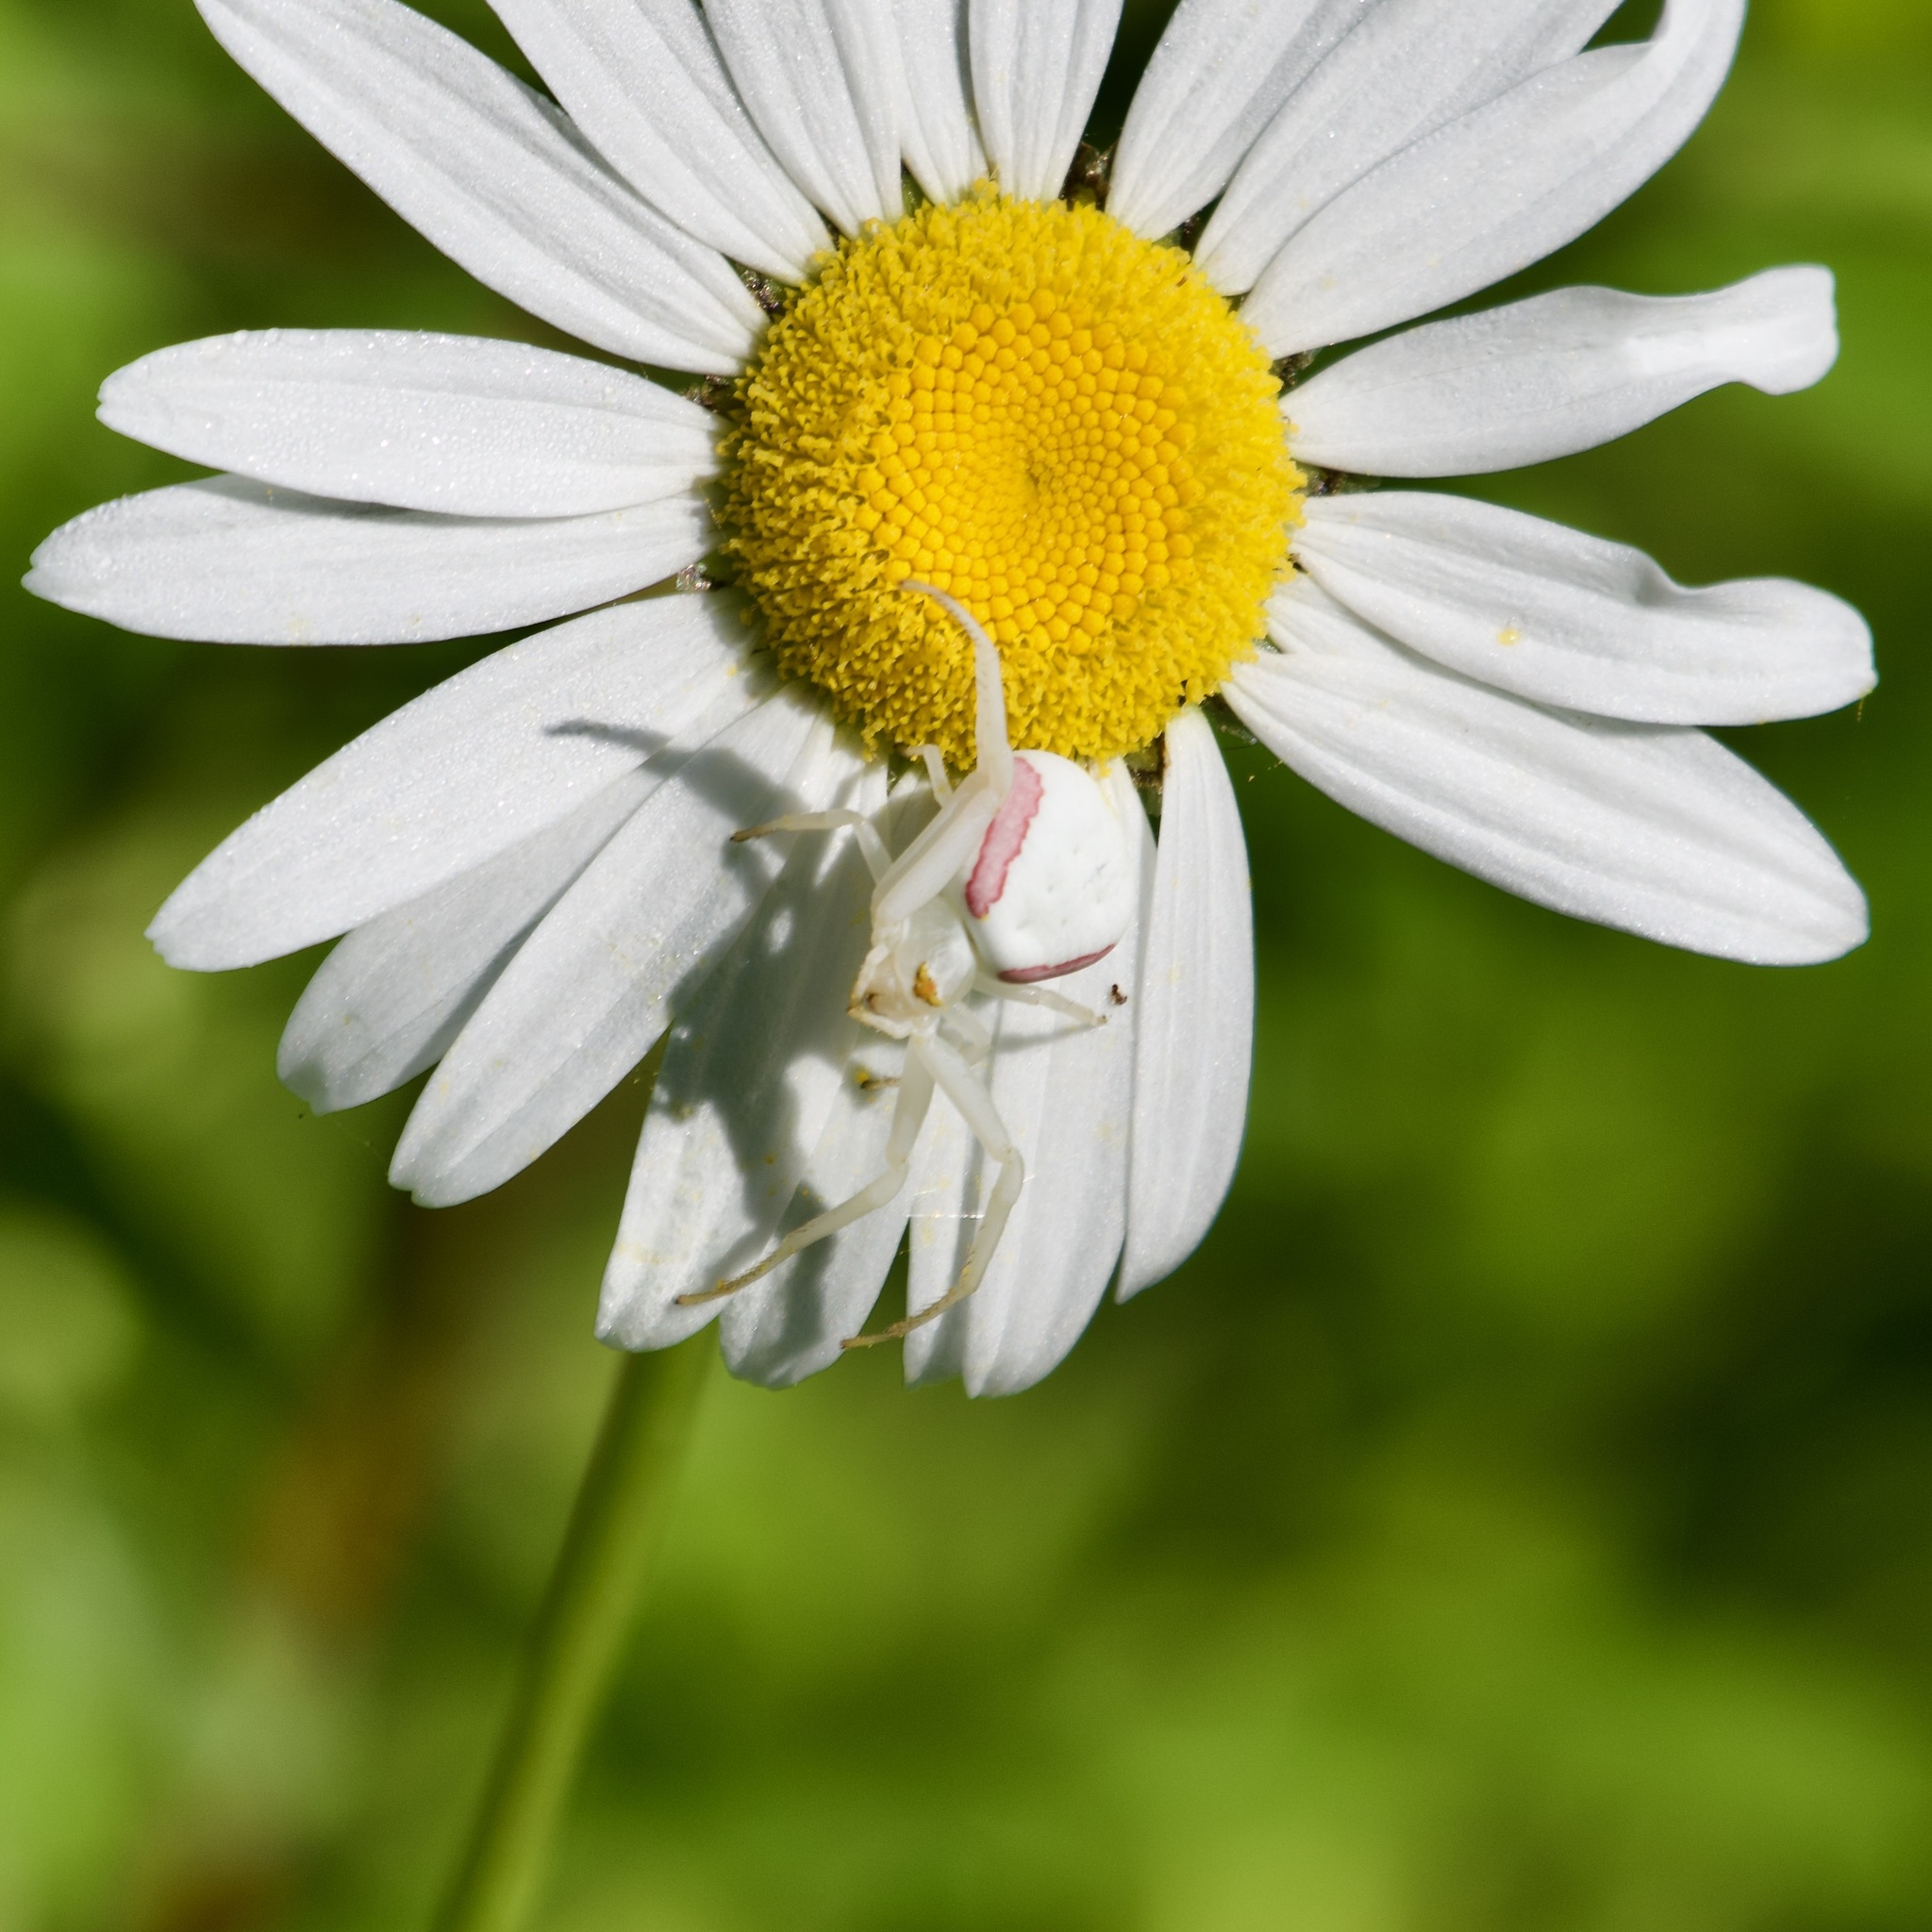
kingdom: Animalia
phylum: Arthropoda
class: Arachnida
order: Araneae
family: Thomisidae
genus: Misumena
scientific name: Misumena vatia
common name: Goldenrod crab spider
